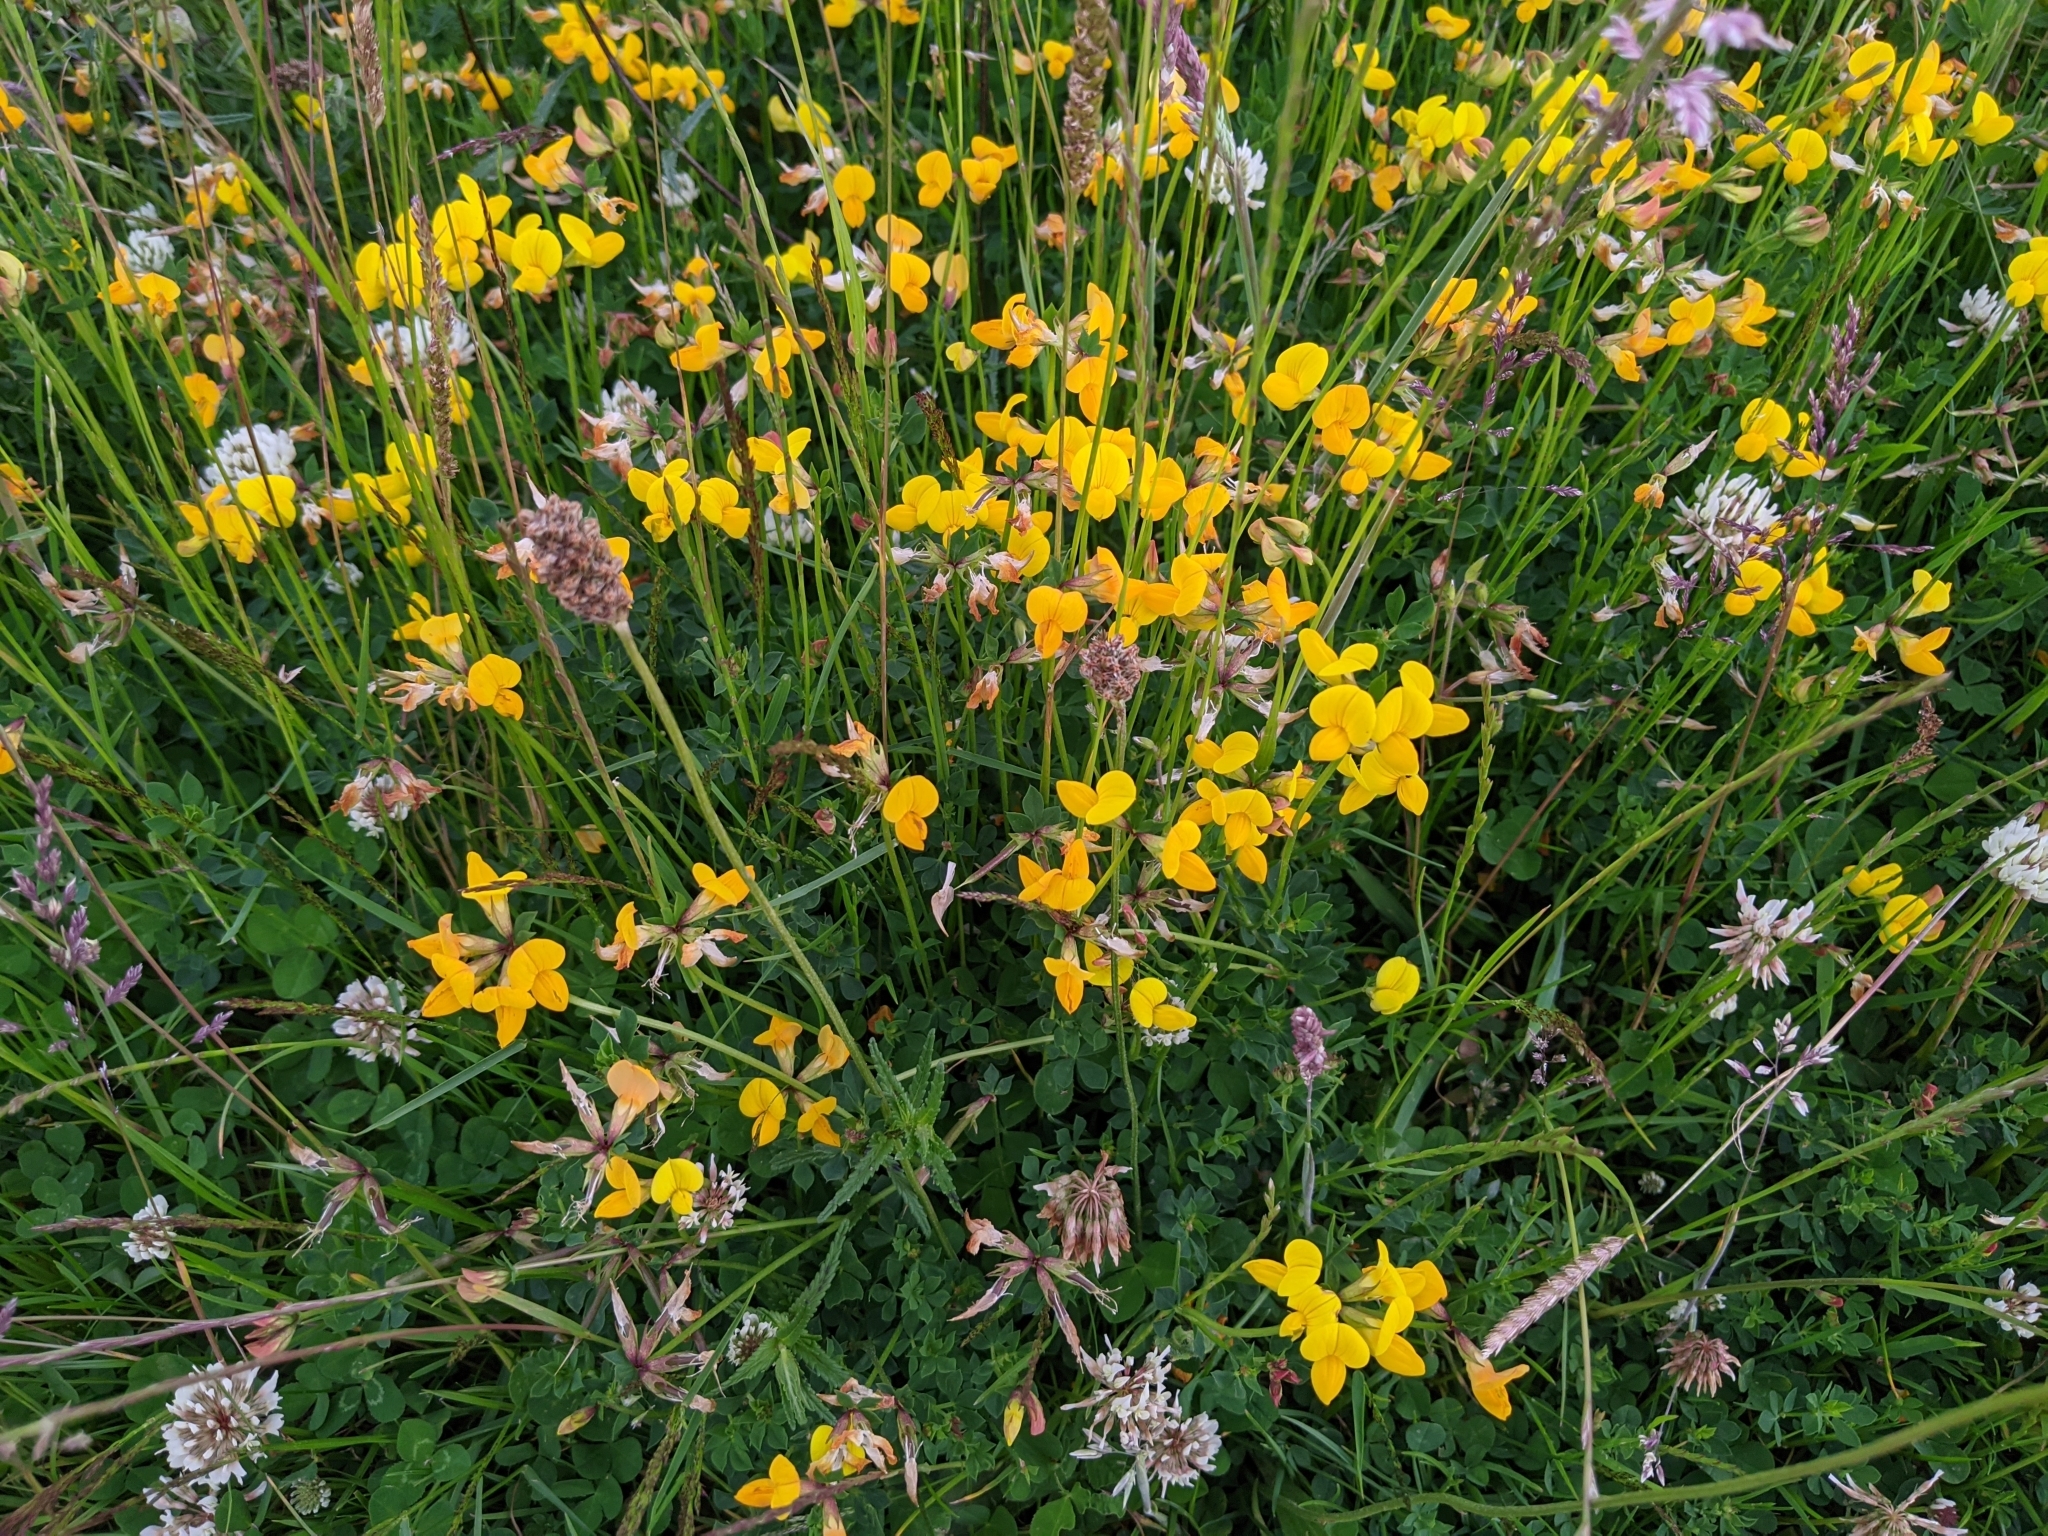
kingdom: Plantae
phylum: Tracheophyta
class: Magnoliopsida
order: Fabales
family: Fabaceae
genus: Lotus
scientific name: Lotus corniculatus
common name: Common bird's-foot-trefoil
